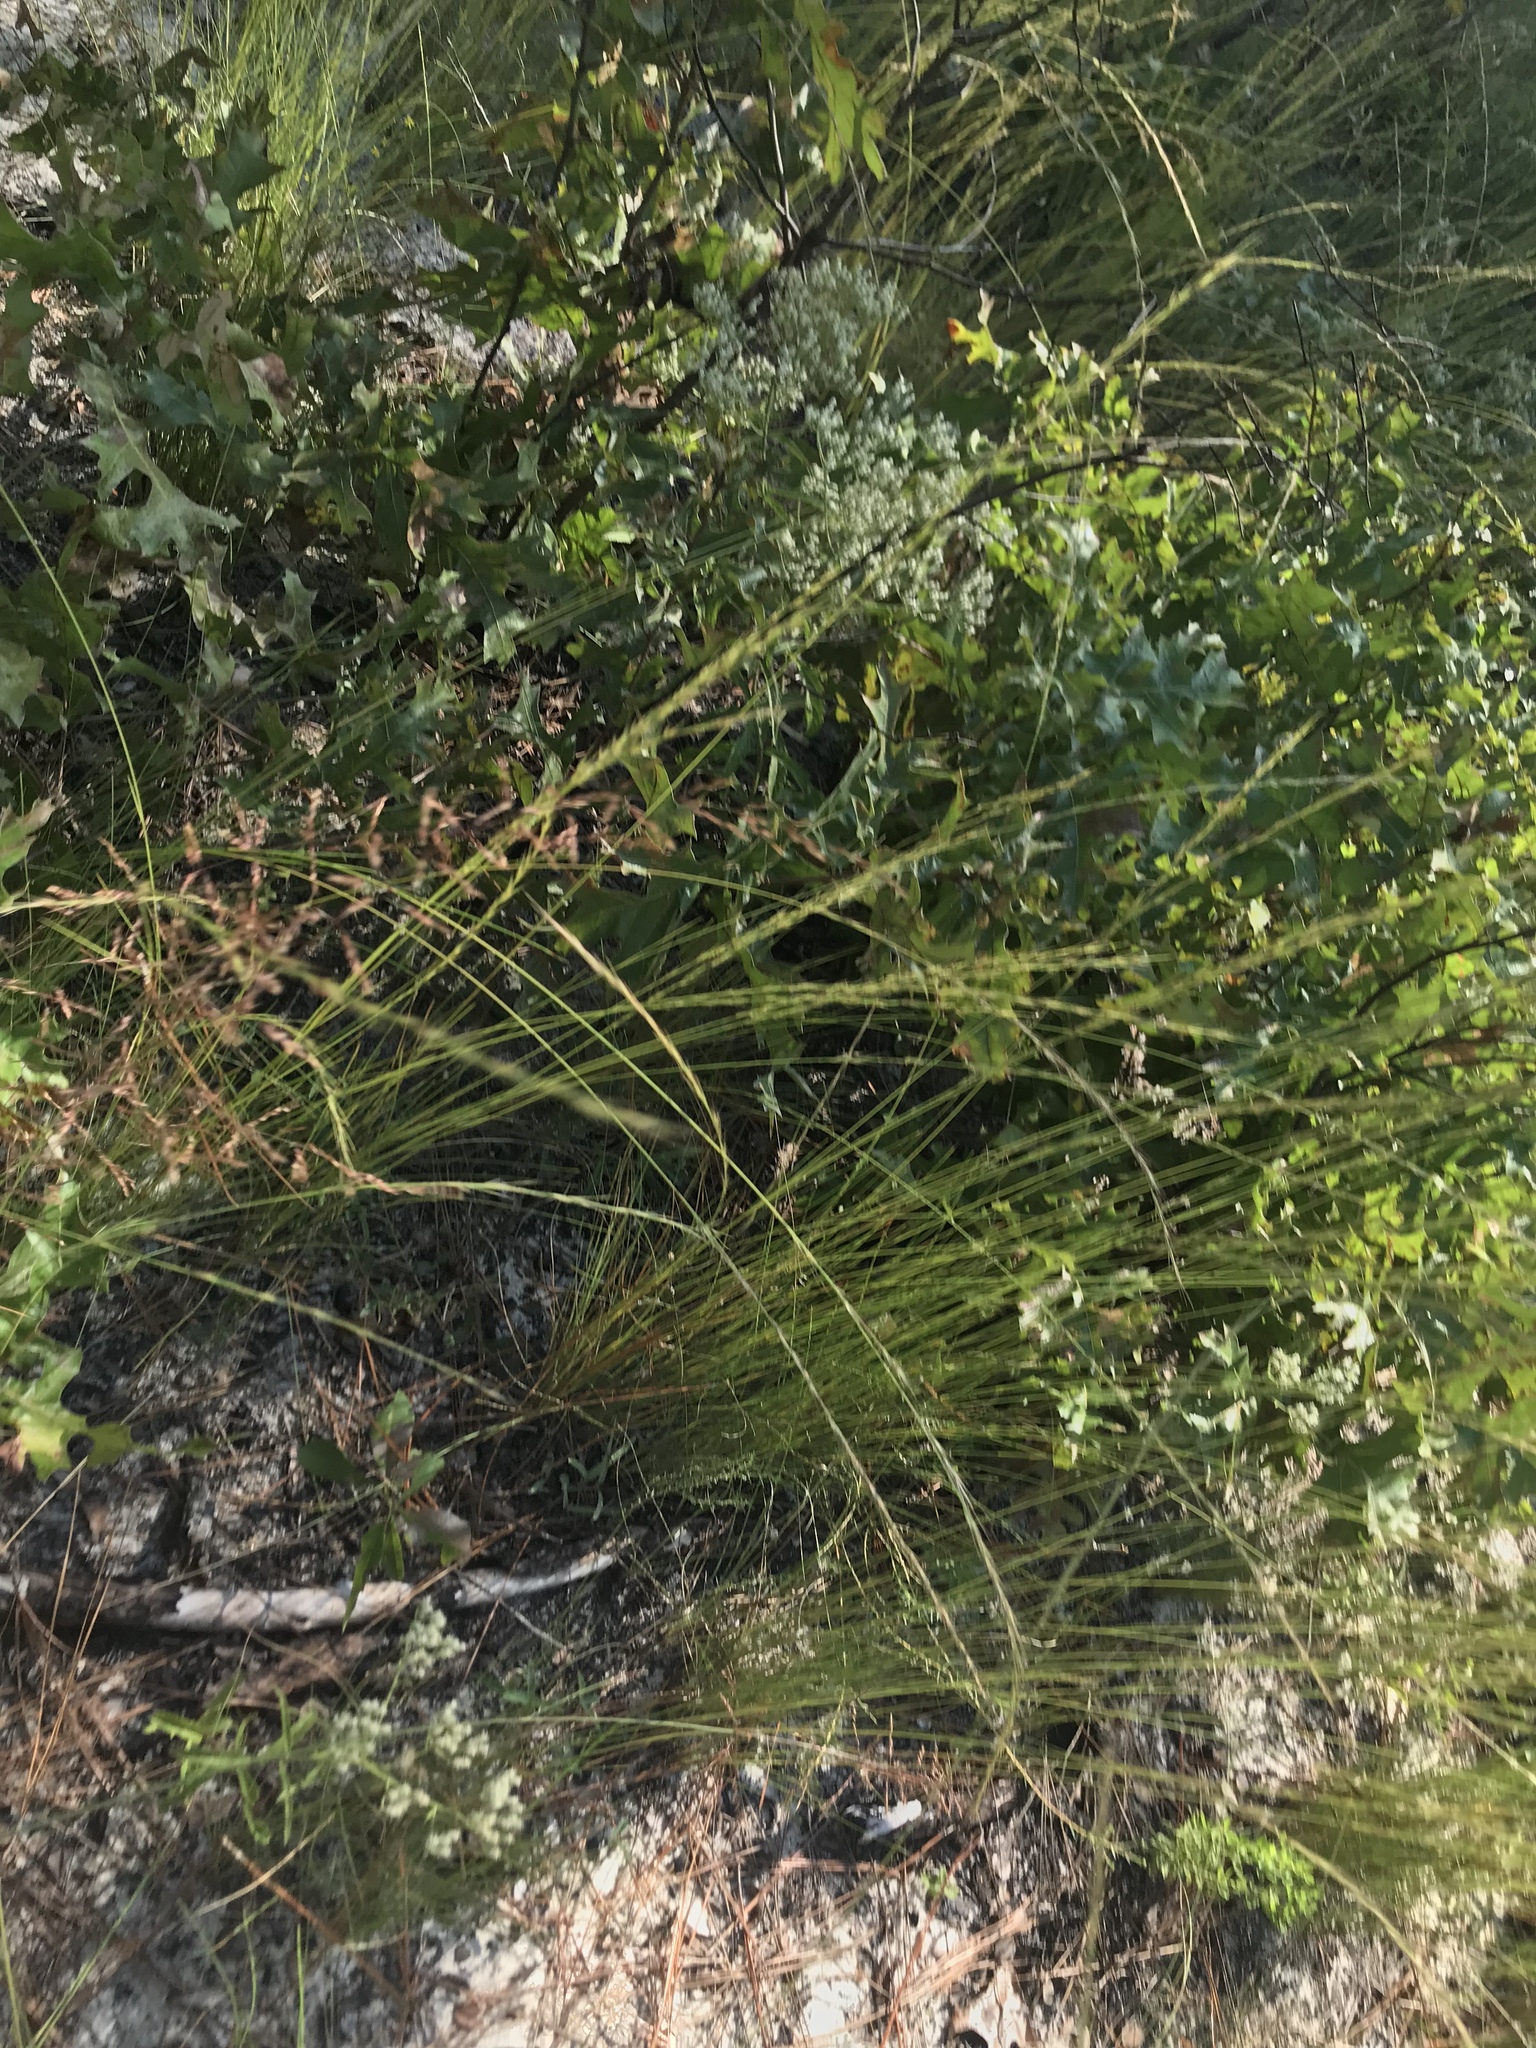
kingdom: Plantae
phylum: Tracheophyta
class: Liliopsida
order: Poales
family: Poaceae
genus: Sporobolus
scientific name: Sporobolus junceus
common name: Lizard grass
